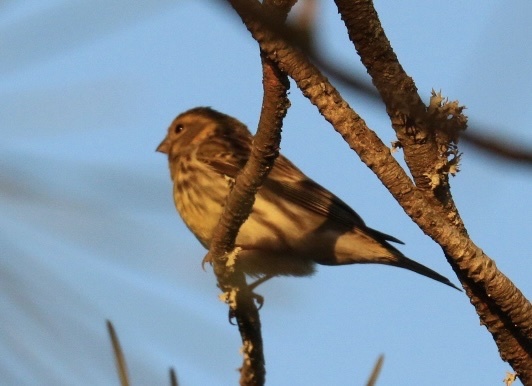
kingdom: Animalia
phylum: Chordata
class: Aves
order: Passeriformes
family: Fringillidae
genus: Serinus
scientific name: Serinus serinus
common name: European serin
